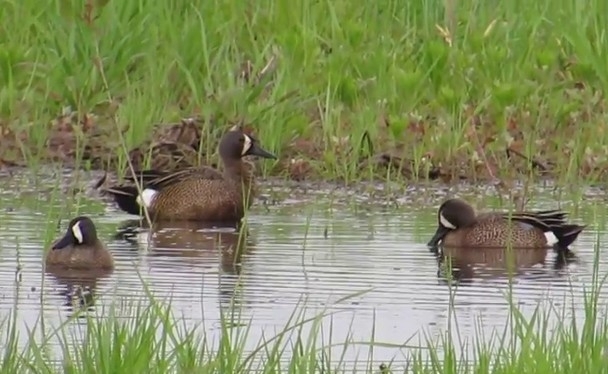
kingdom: Animalia
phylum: Chordata
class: Aves
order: Anseriformes
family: Anatidae
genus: Spatula
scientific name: Spatula discors
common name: Blue-winged teal
